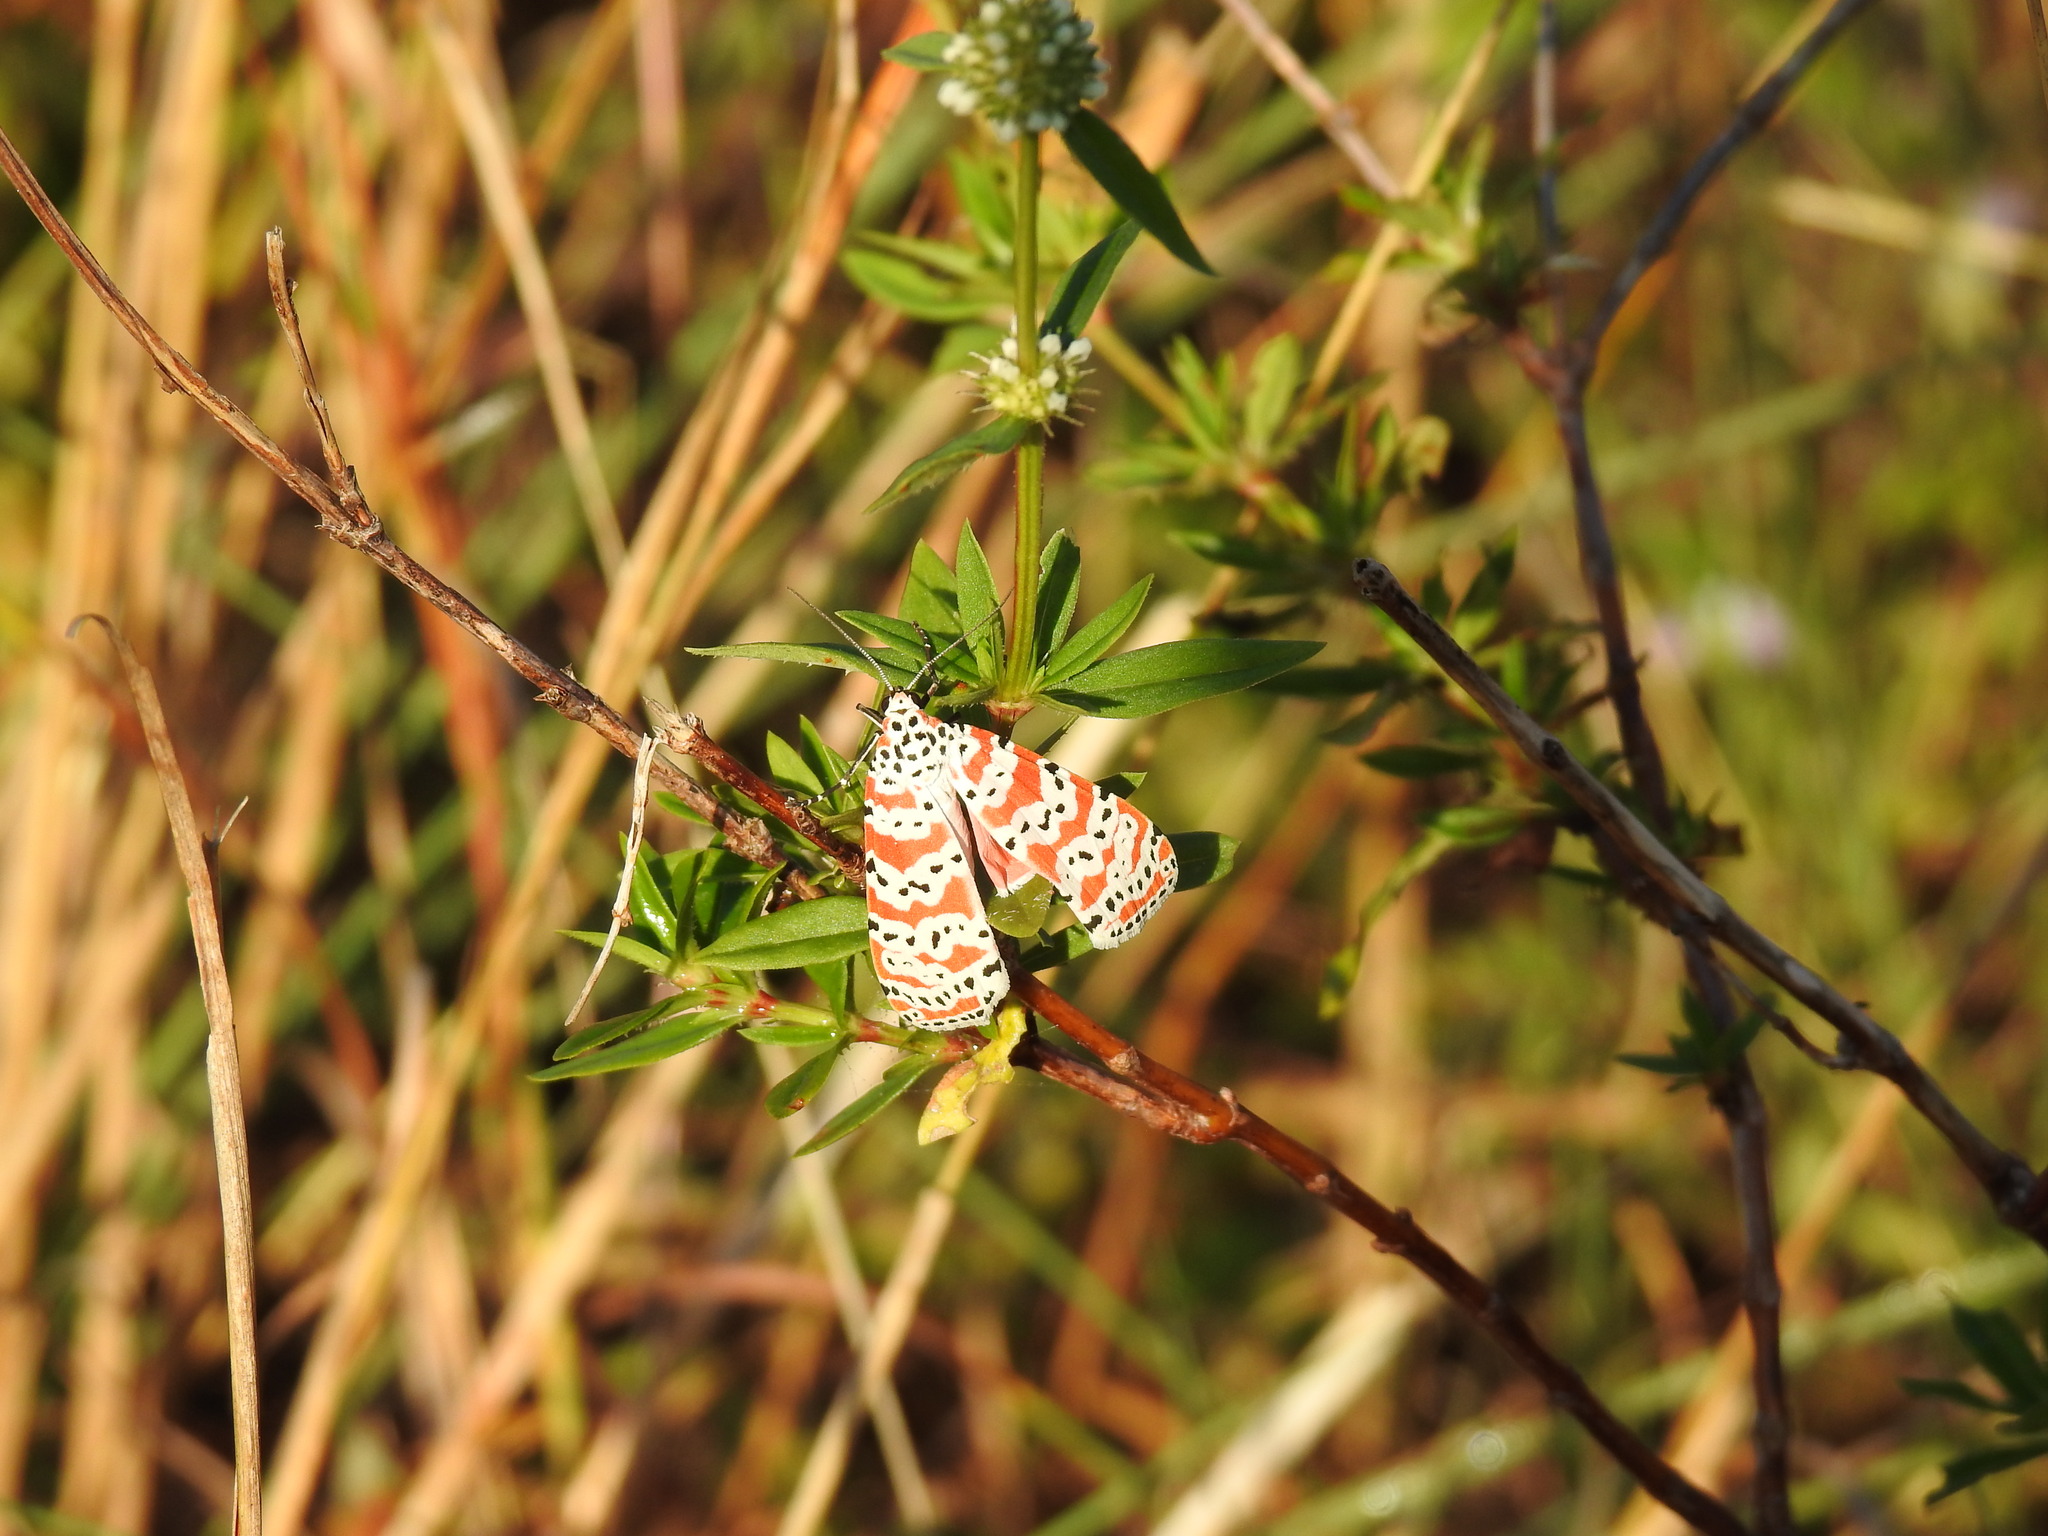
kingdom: Animalia
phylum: Arthropoda
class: Insecta
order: Lepidoptera
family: Erebidae
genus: Utetheisa
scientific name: Utetheisa ornatrix
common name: Beautiful utetheisa
